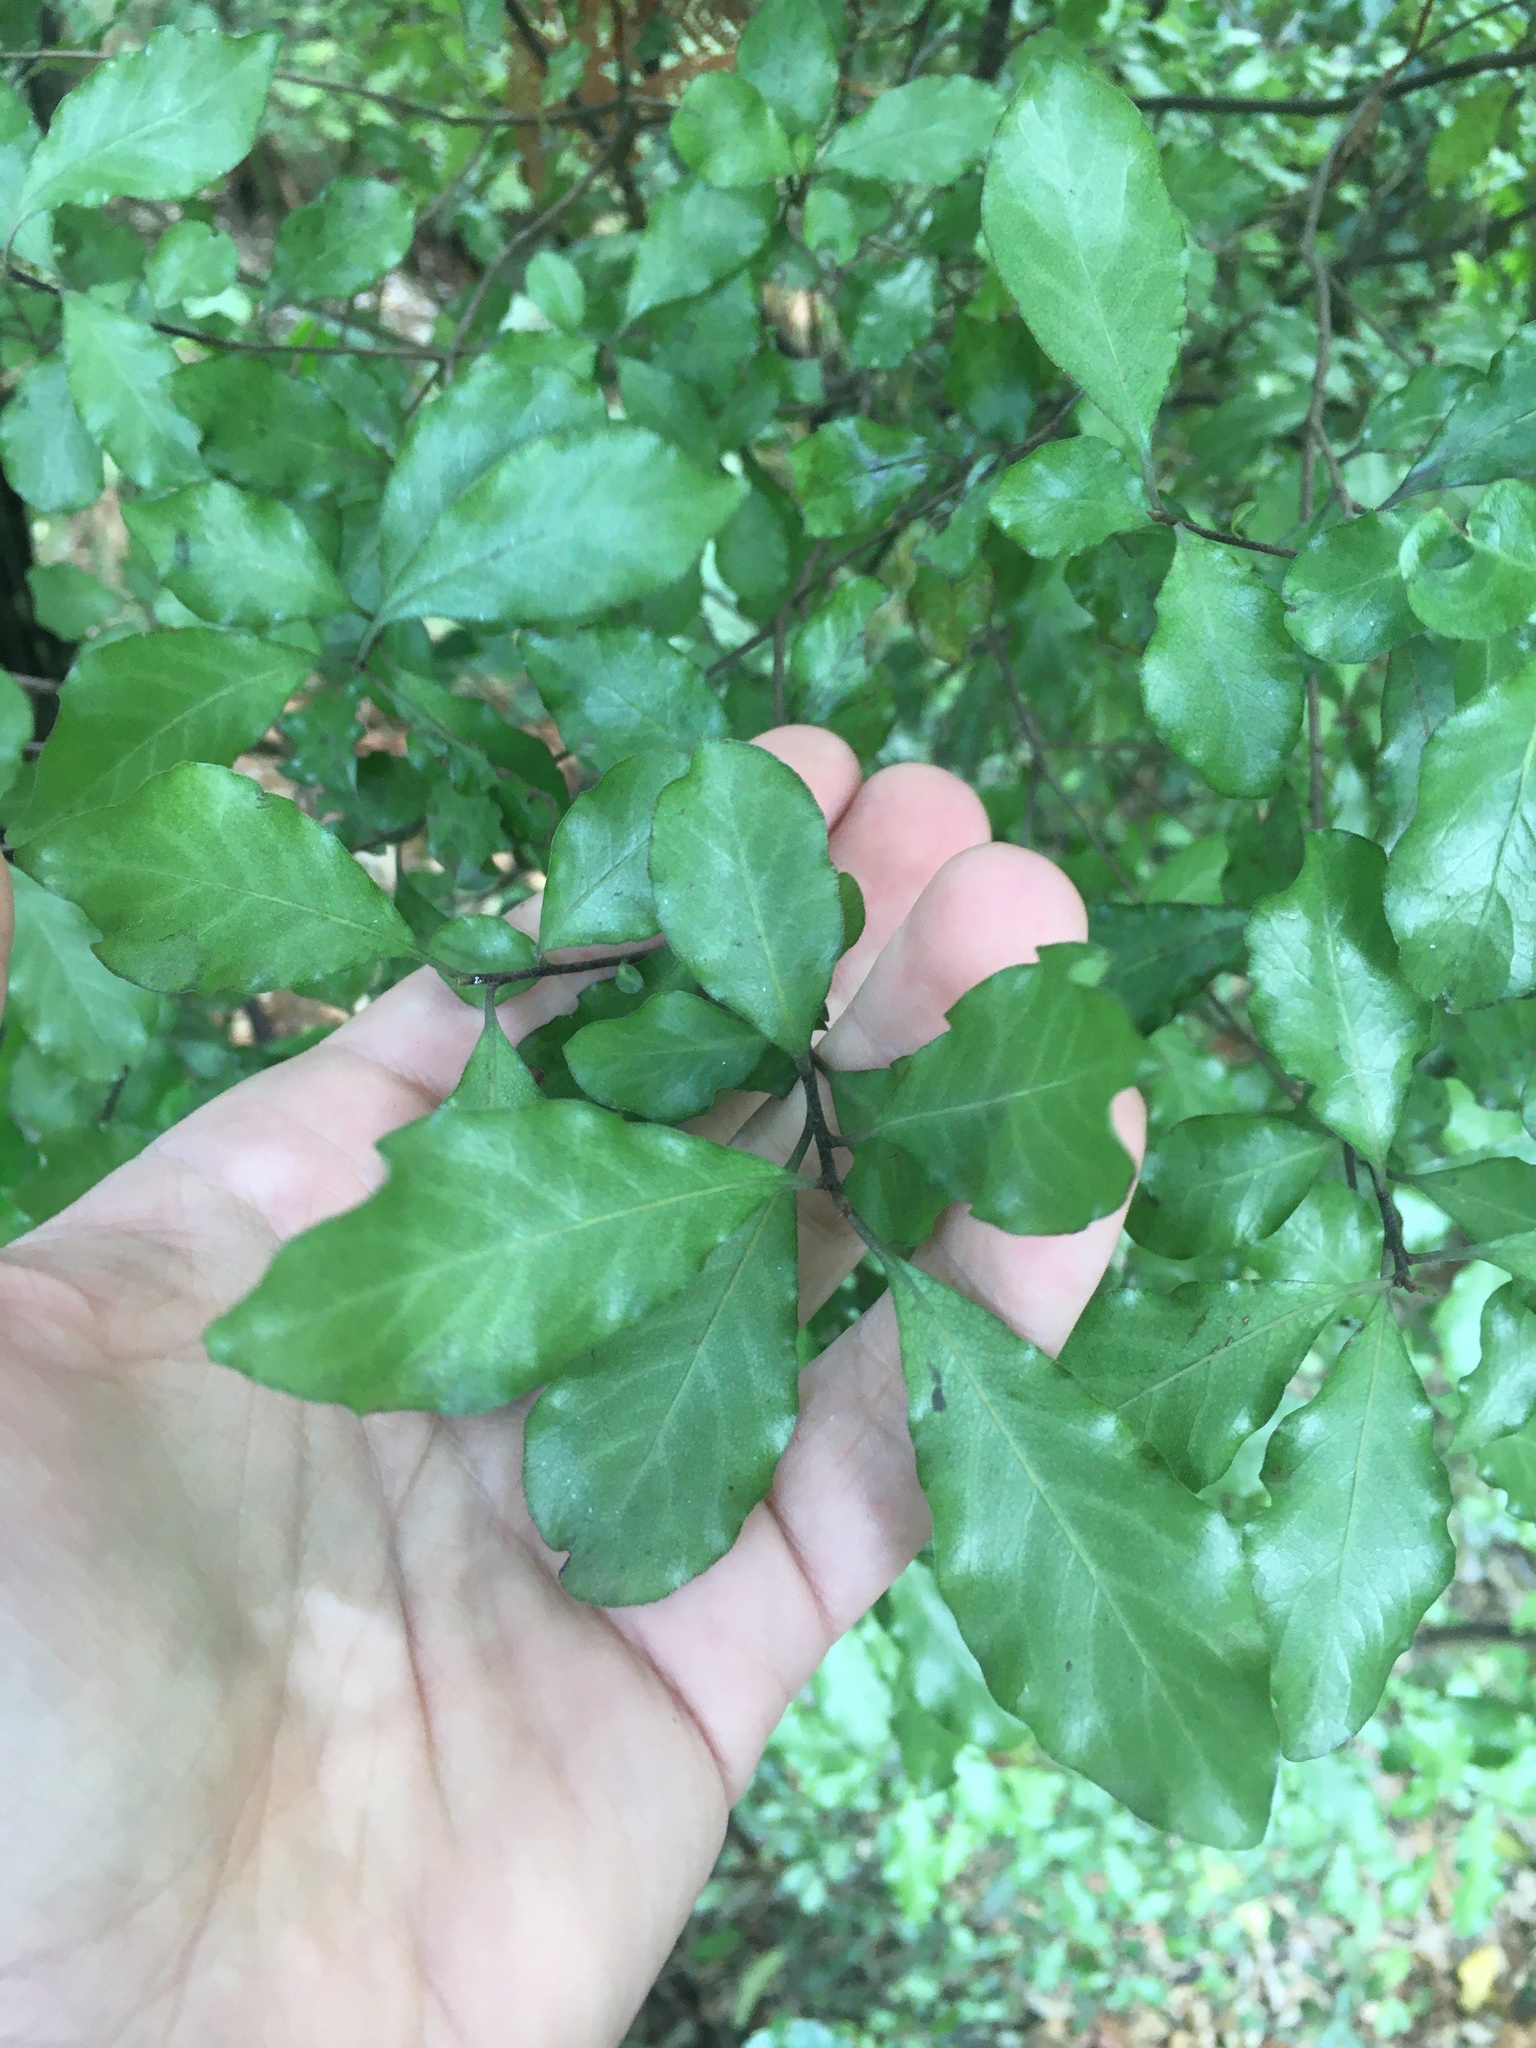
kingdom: Plantae
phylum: Tracheophyta
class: Magnoliopsida
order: Apiales
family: Pittosporaceae
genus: Pittosporum
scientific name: Pittosporum tenuifolium
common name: Kohuhu
